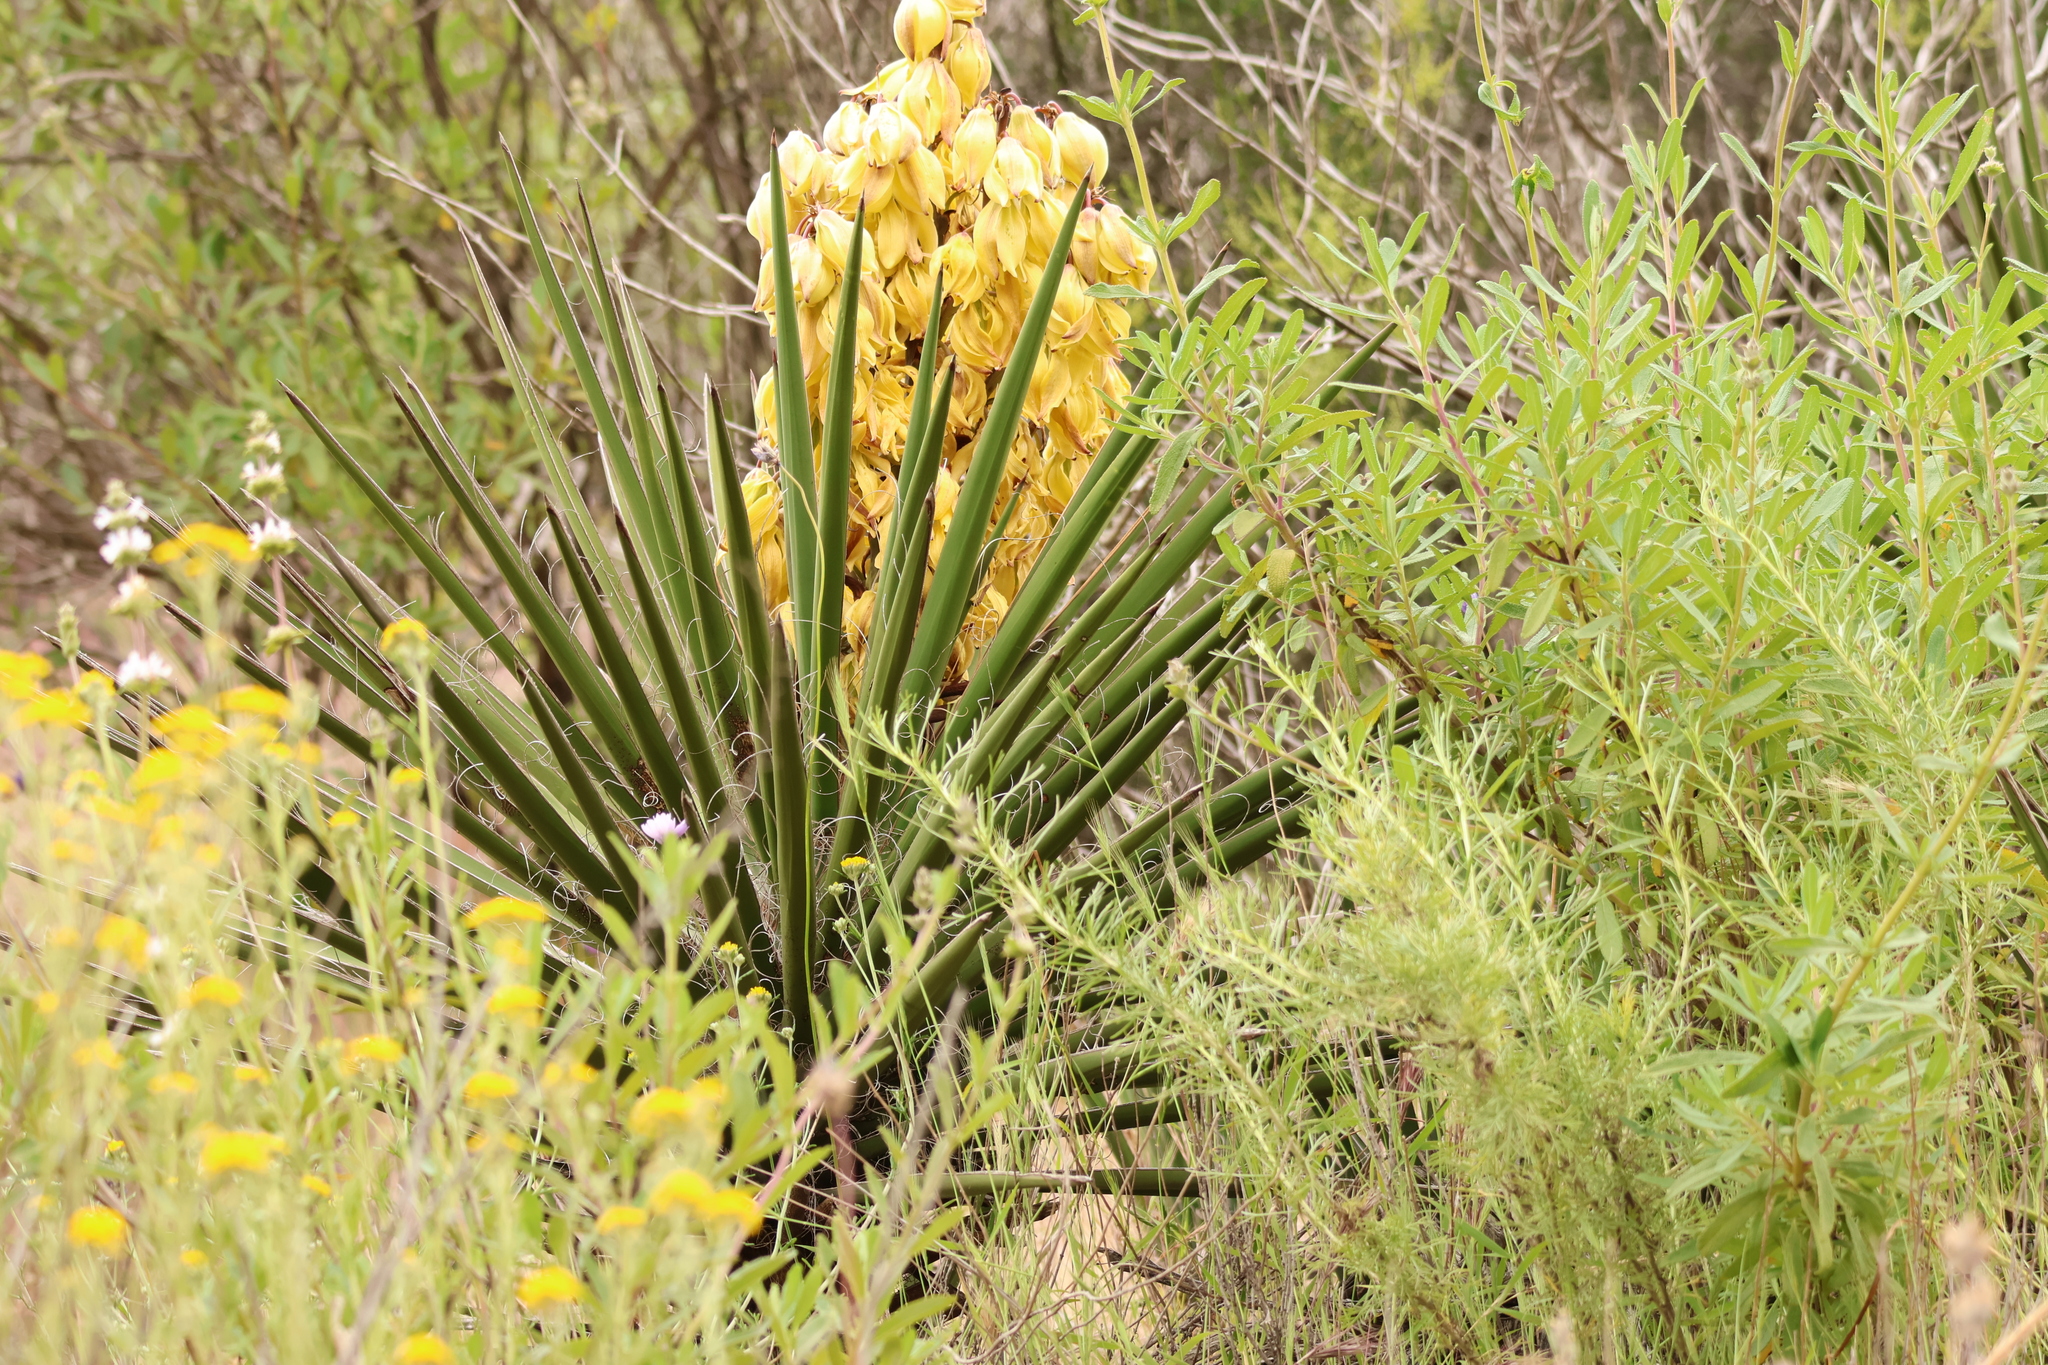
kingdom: Plantae
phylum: Tracheophyta
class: Liliopsida
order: Asparagales
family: Asparagaceae
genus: Yucca
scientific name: Yucca schidigera
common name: Mojave yucca
